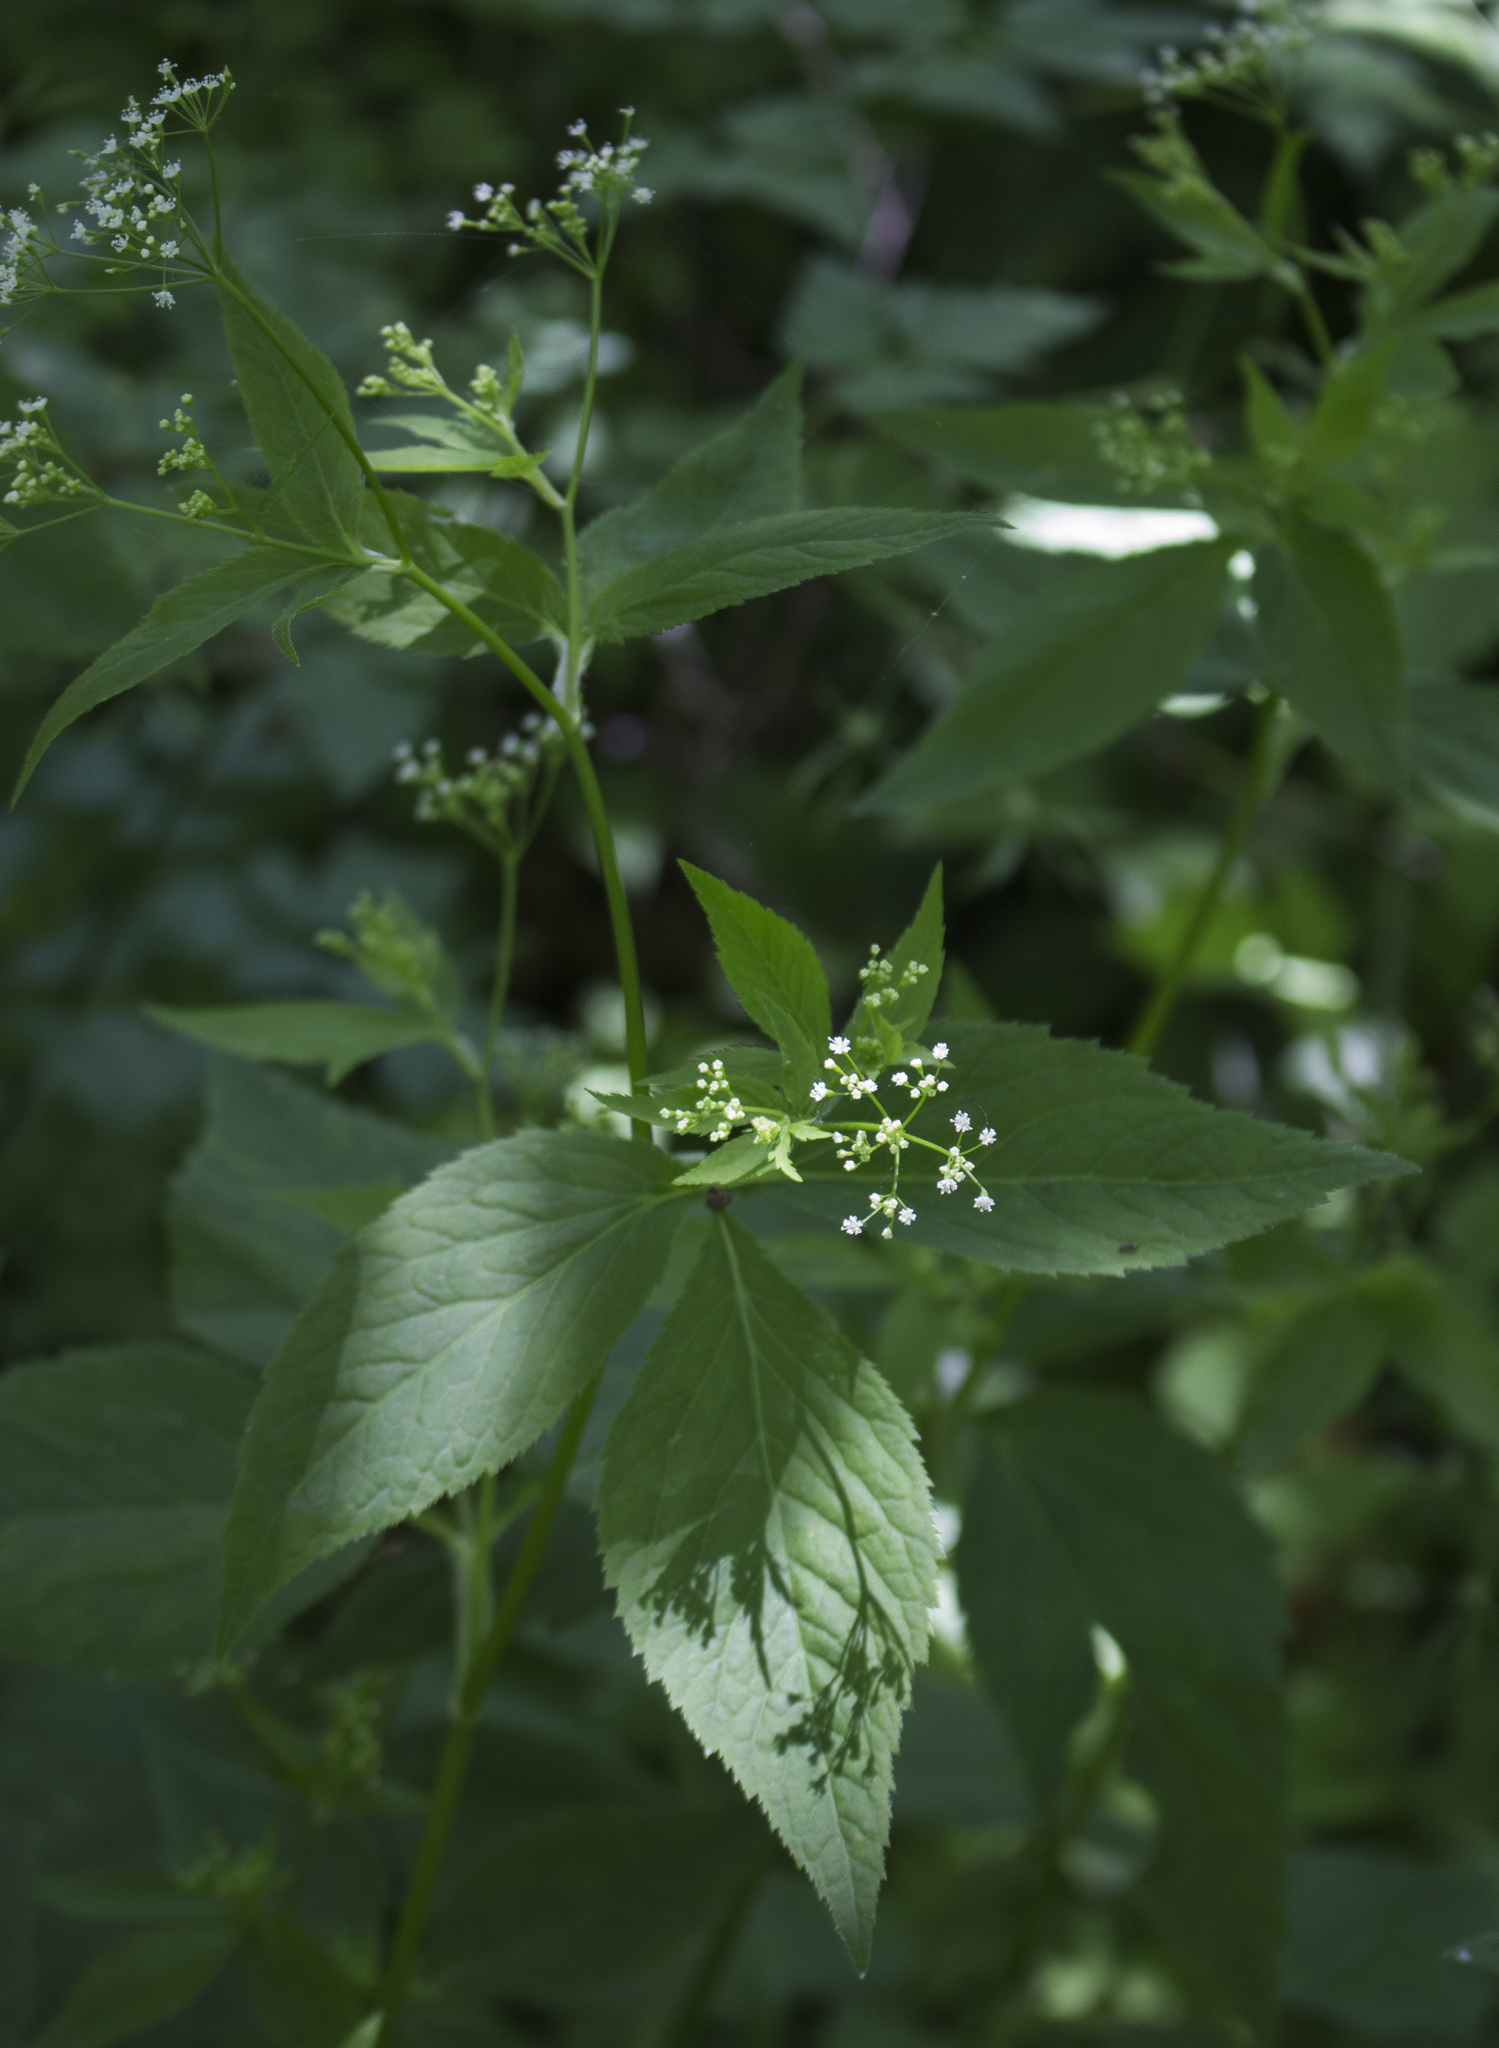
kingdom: Plantae
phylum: Tracheophyta
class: Magnoliopsida
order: Apiales
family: Apiaceae
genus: Cryptotaenia
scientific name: Cryptotaenia canadensis
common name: Honewort
